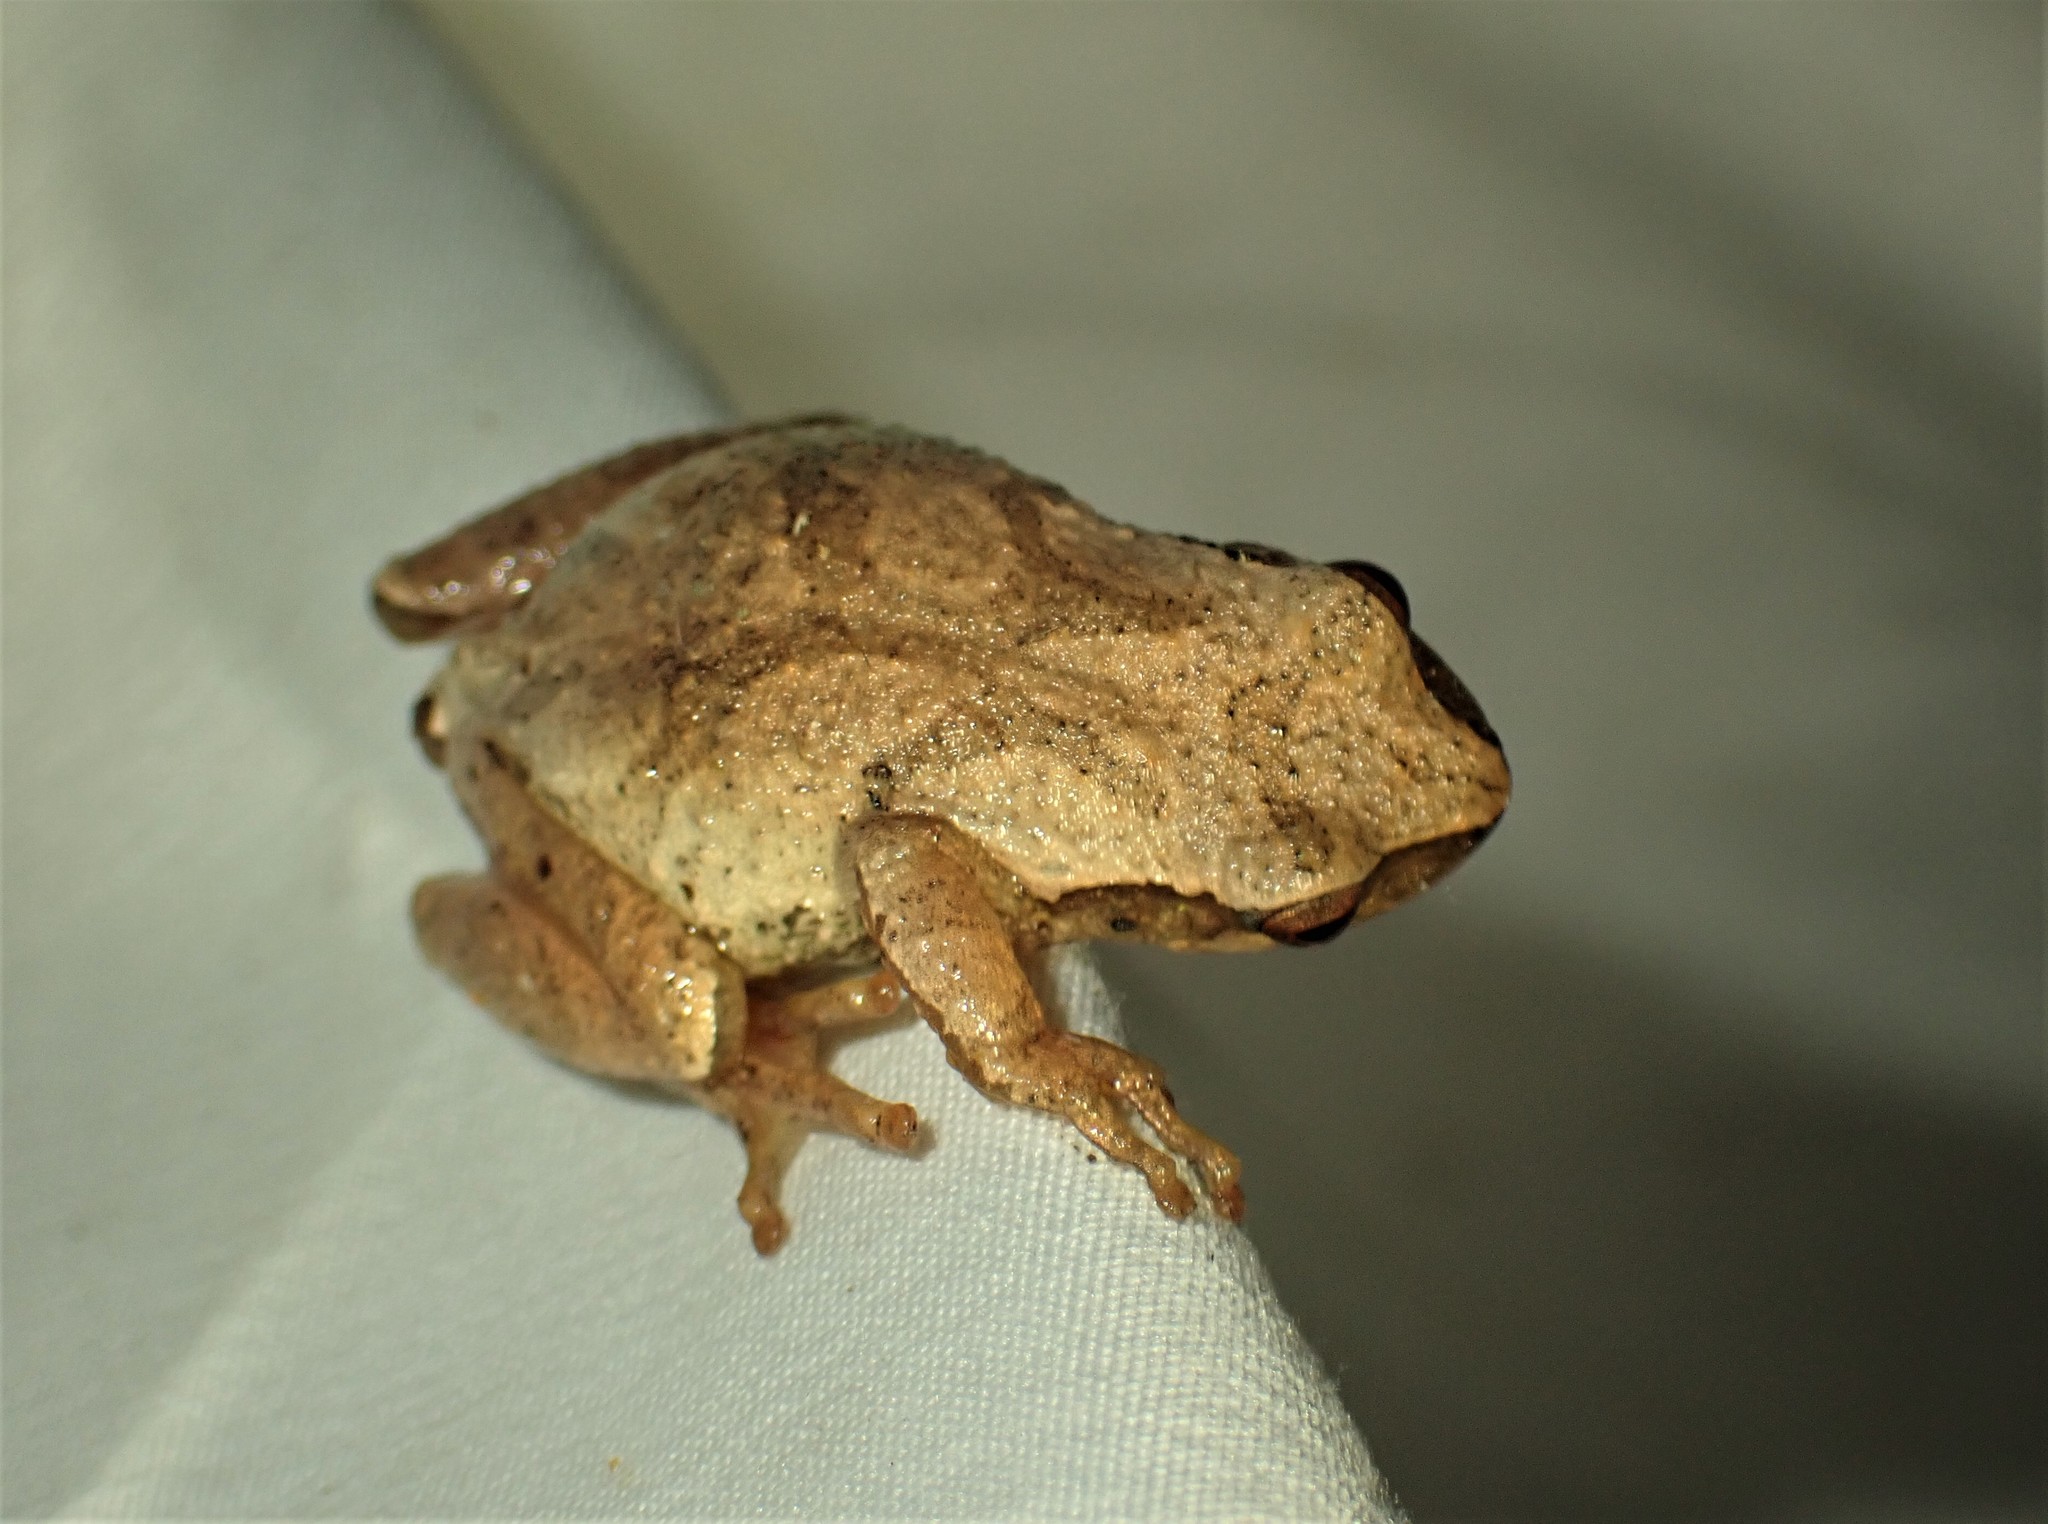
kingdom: Animalia
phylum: Chordata
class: Amphibia
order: Anura
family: Hylidae
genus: Pseudacris
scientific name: Pseudacris crucifer
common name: Spring peeper
